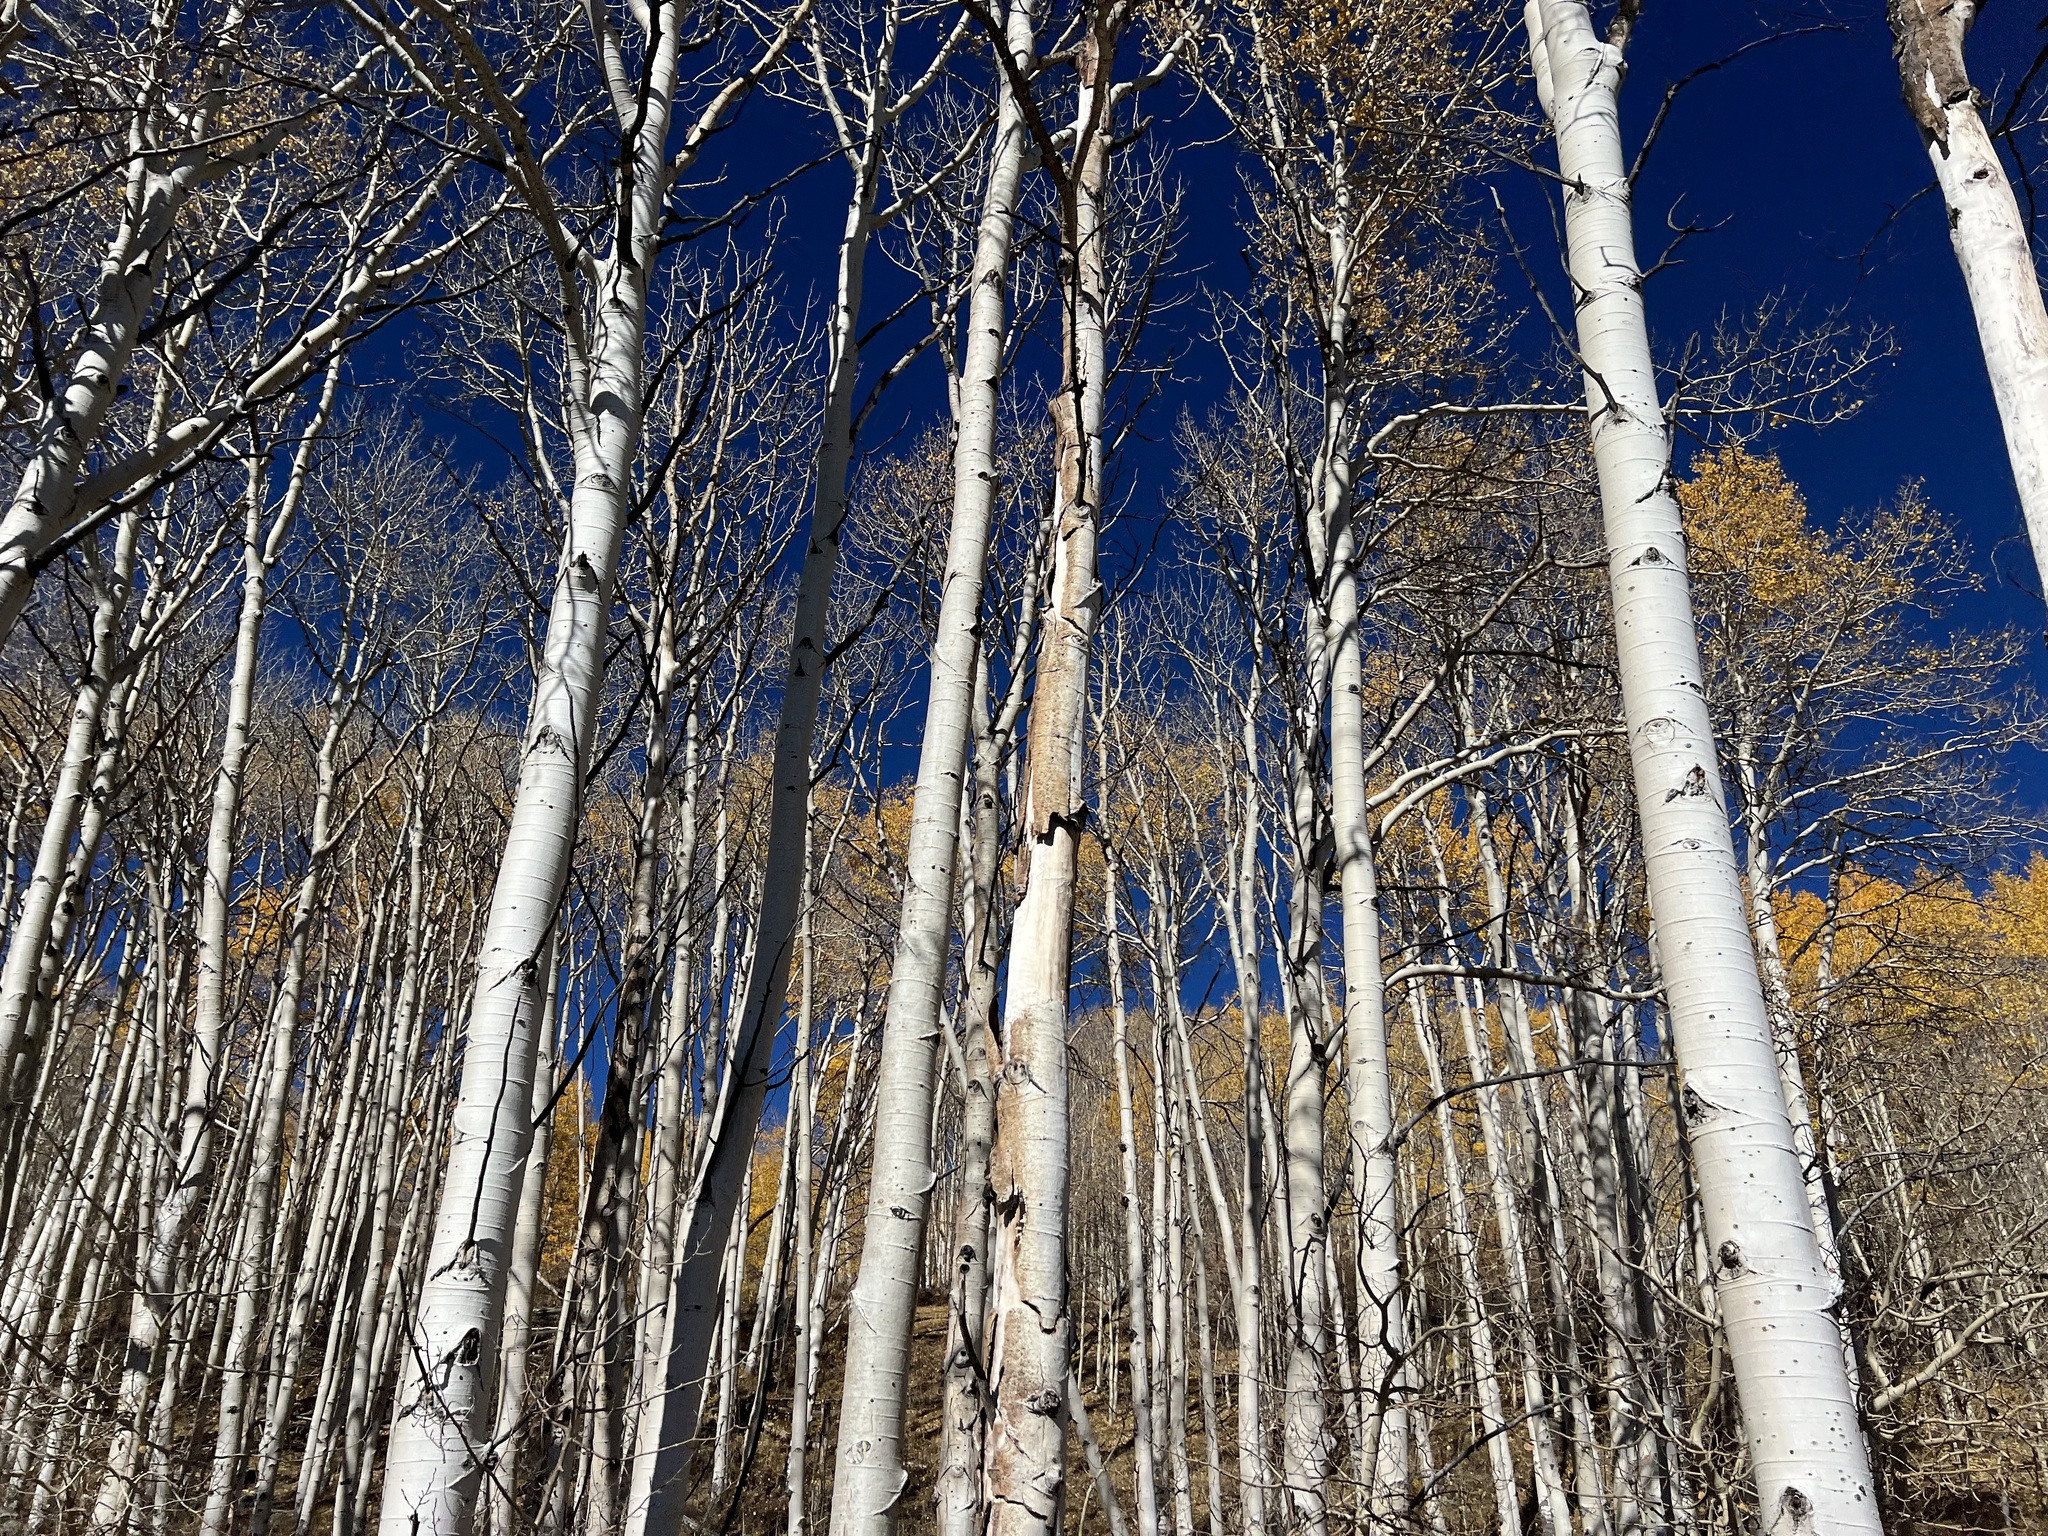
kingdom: Plantae
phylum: Tracheophyta
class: Magnoliopsida
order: Malpighiales
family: Salicaceae
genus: Populus
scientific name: Populus tremuloides
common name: Quaking aspen
